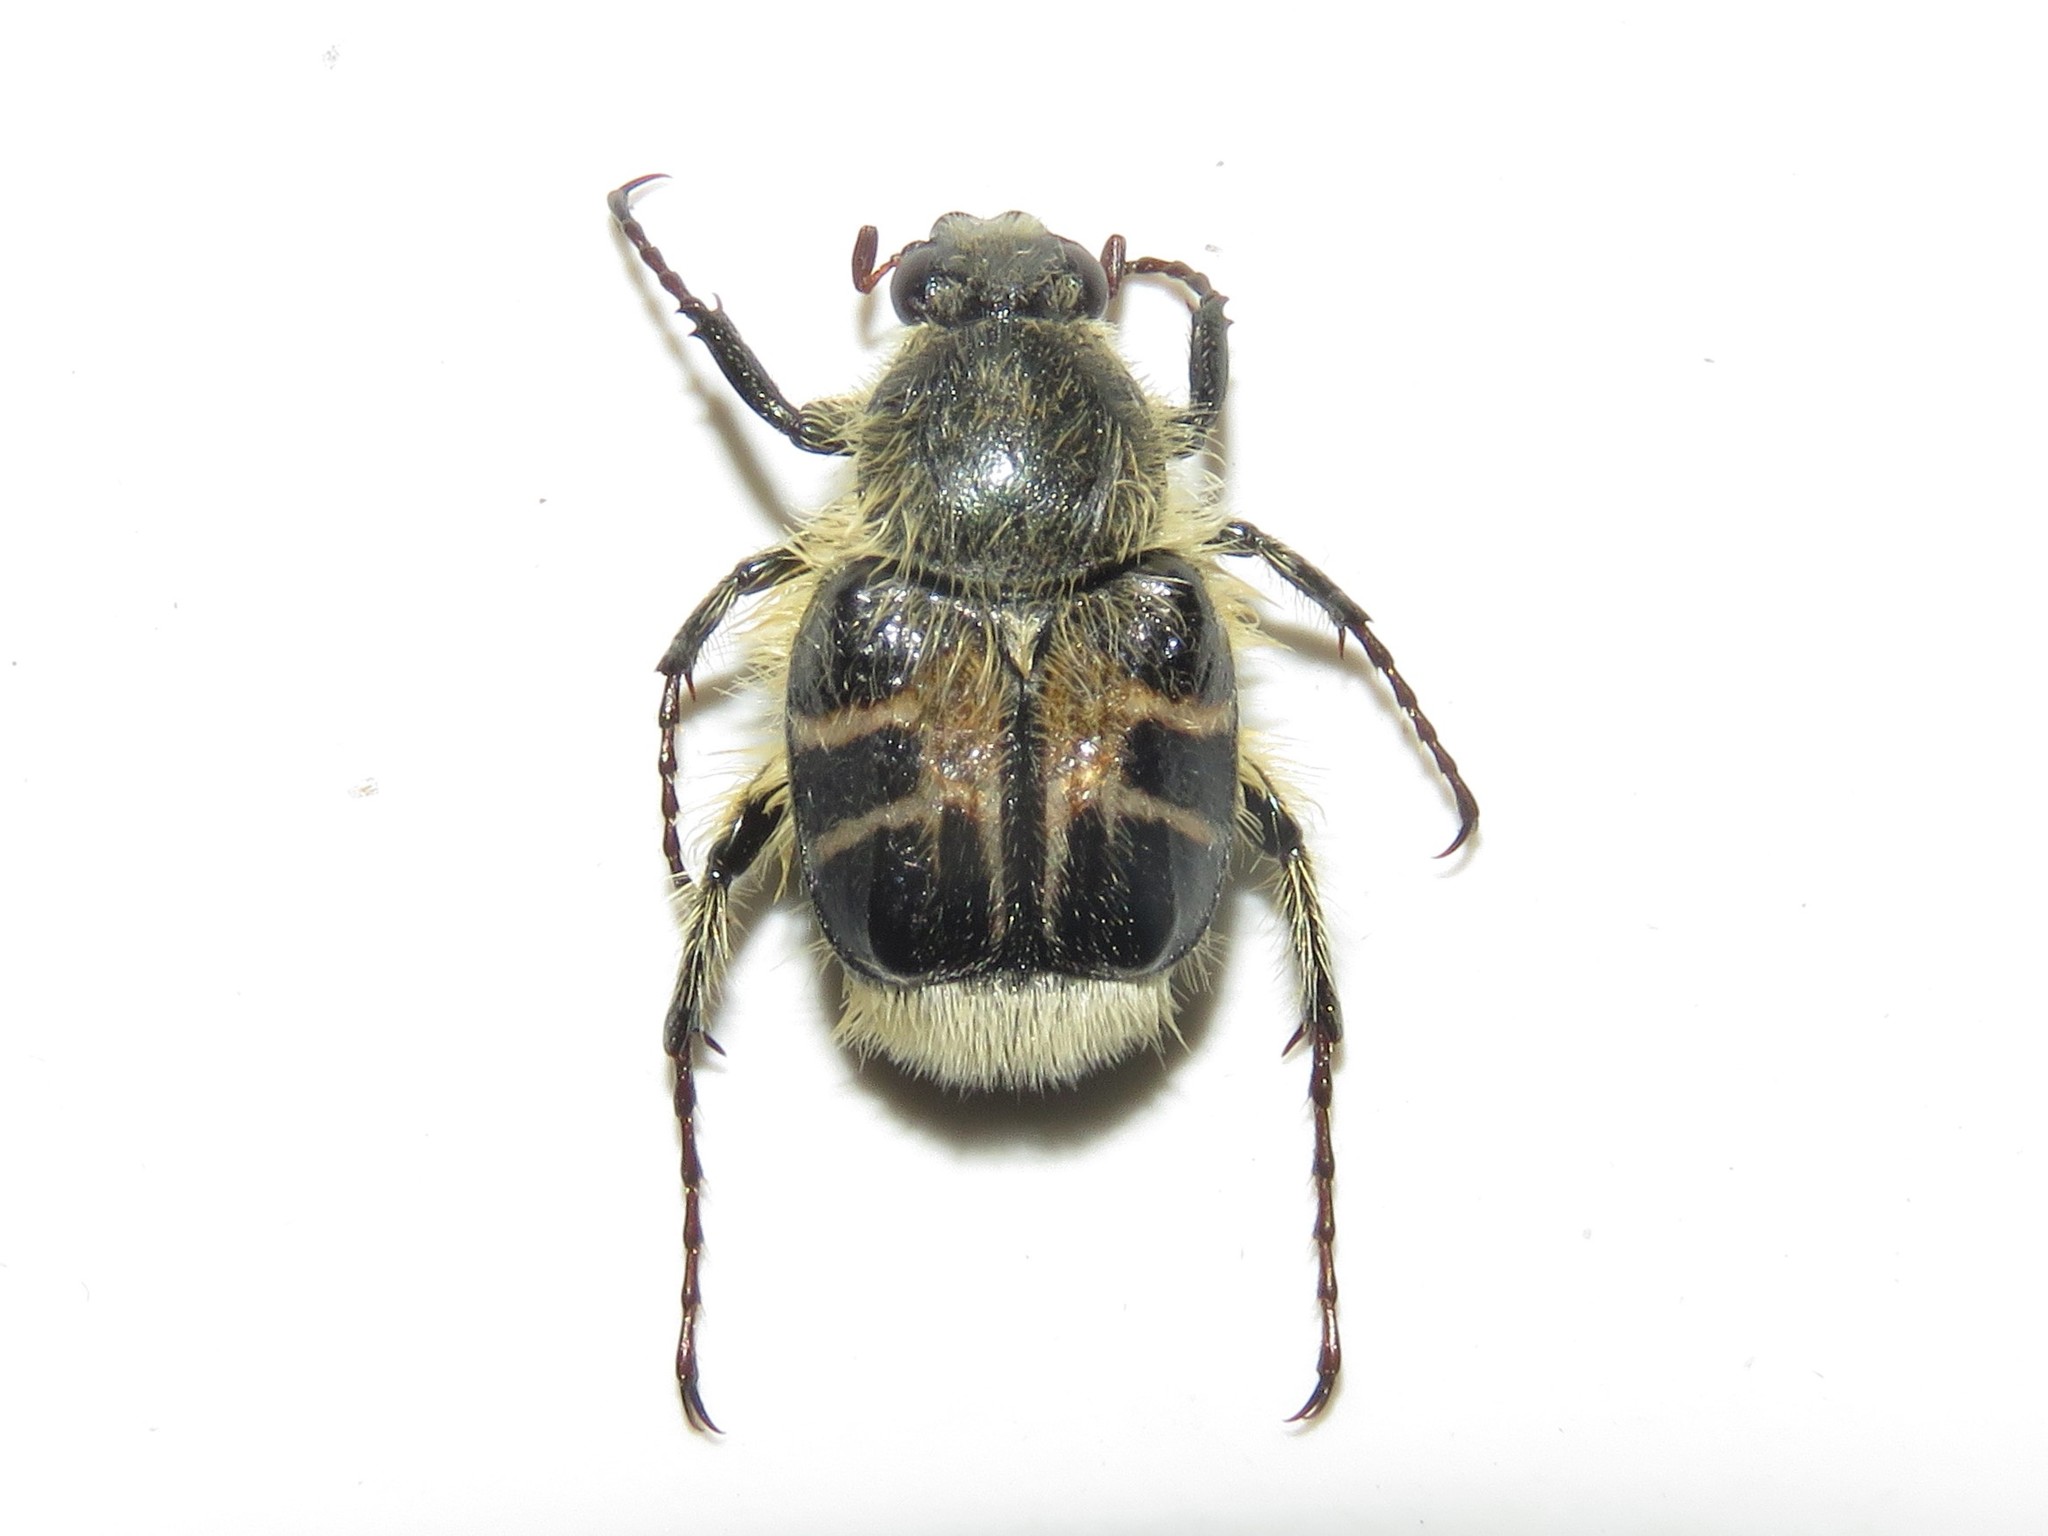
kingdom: Animalia
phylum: Arthropoda
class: Insecta
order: Coleoptera
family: Scarabaeidae
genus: Trichiotinus
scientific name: Trichiotinus assimilis
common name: Bee-mimic beetle
